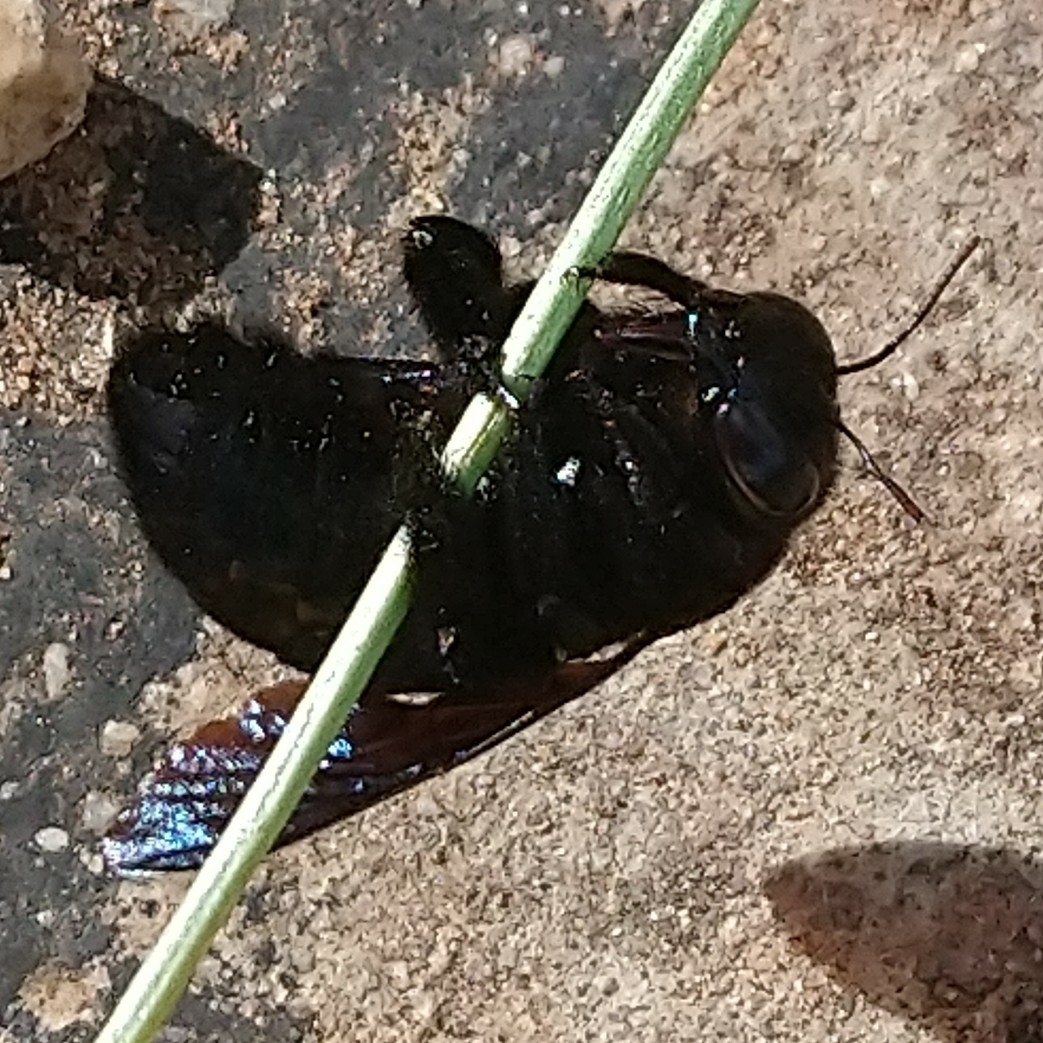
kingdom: Animalia
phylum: Arthropoda
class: Insecta
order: Hymenoptera
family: Apidae
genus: Xylocopa
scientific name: Xylocopa flavicollis
